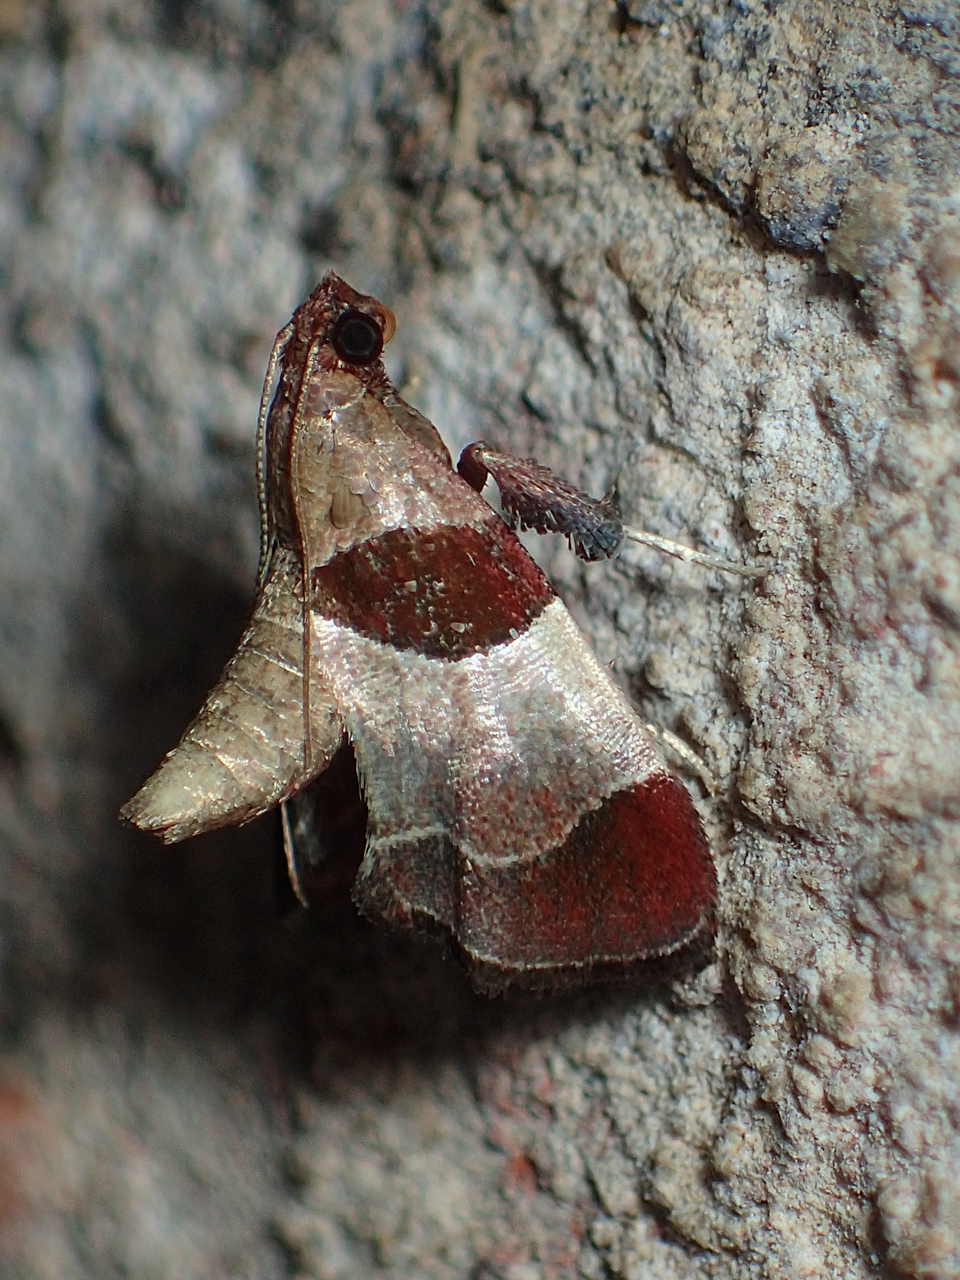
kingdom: Animalia
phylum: Arthropoda
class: Insecta
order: Lepidoptera
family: Pyralidae
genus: Tosale
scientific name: Tosale oviplagalis
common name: Dimorphic tosale moth
